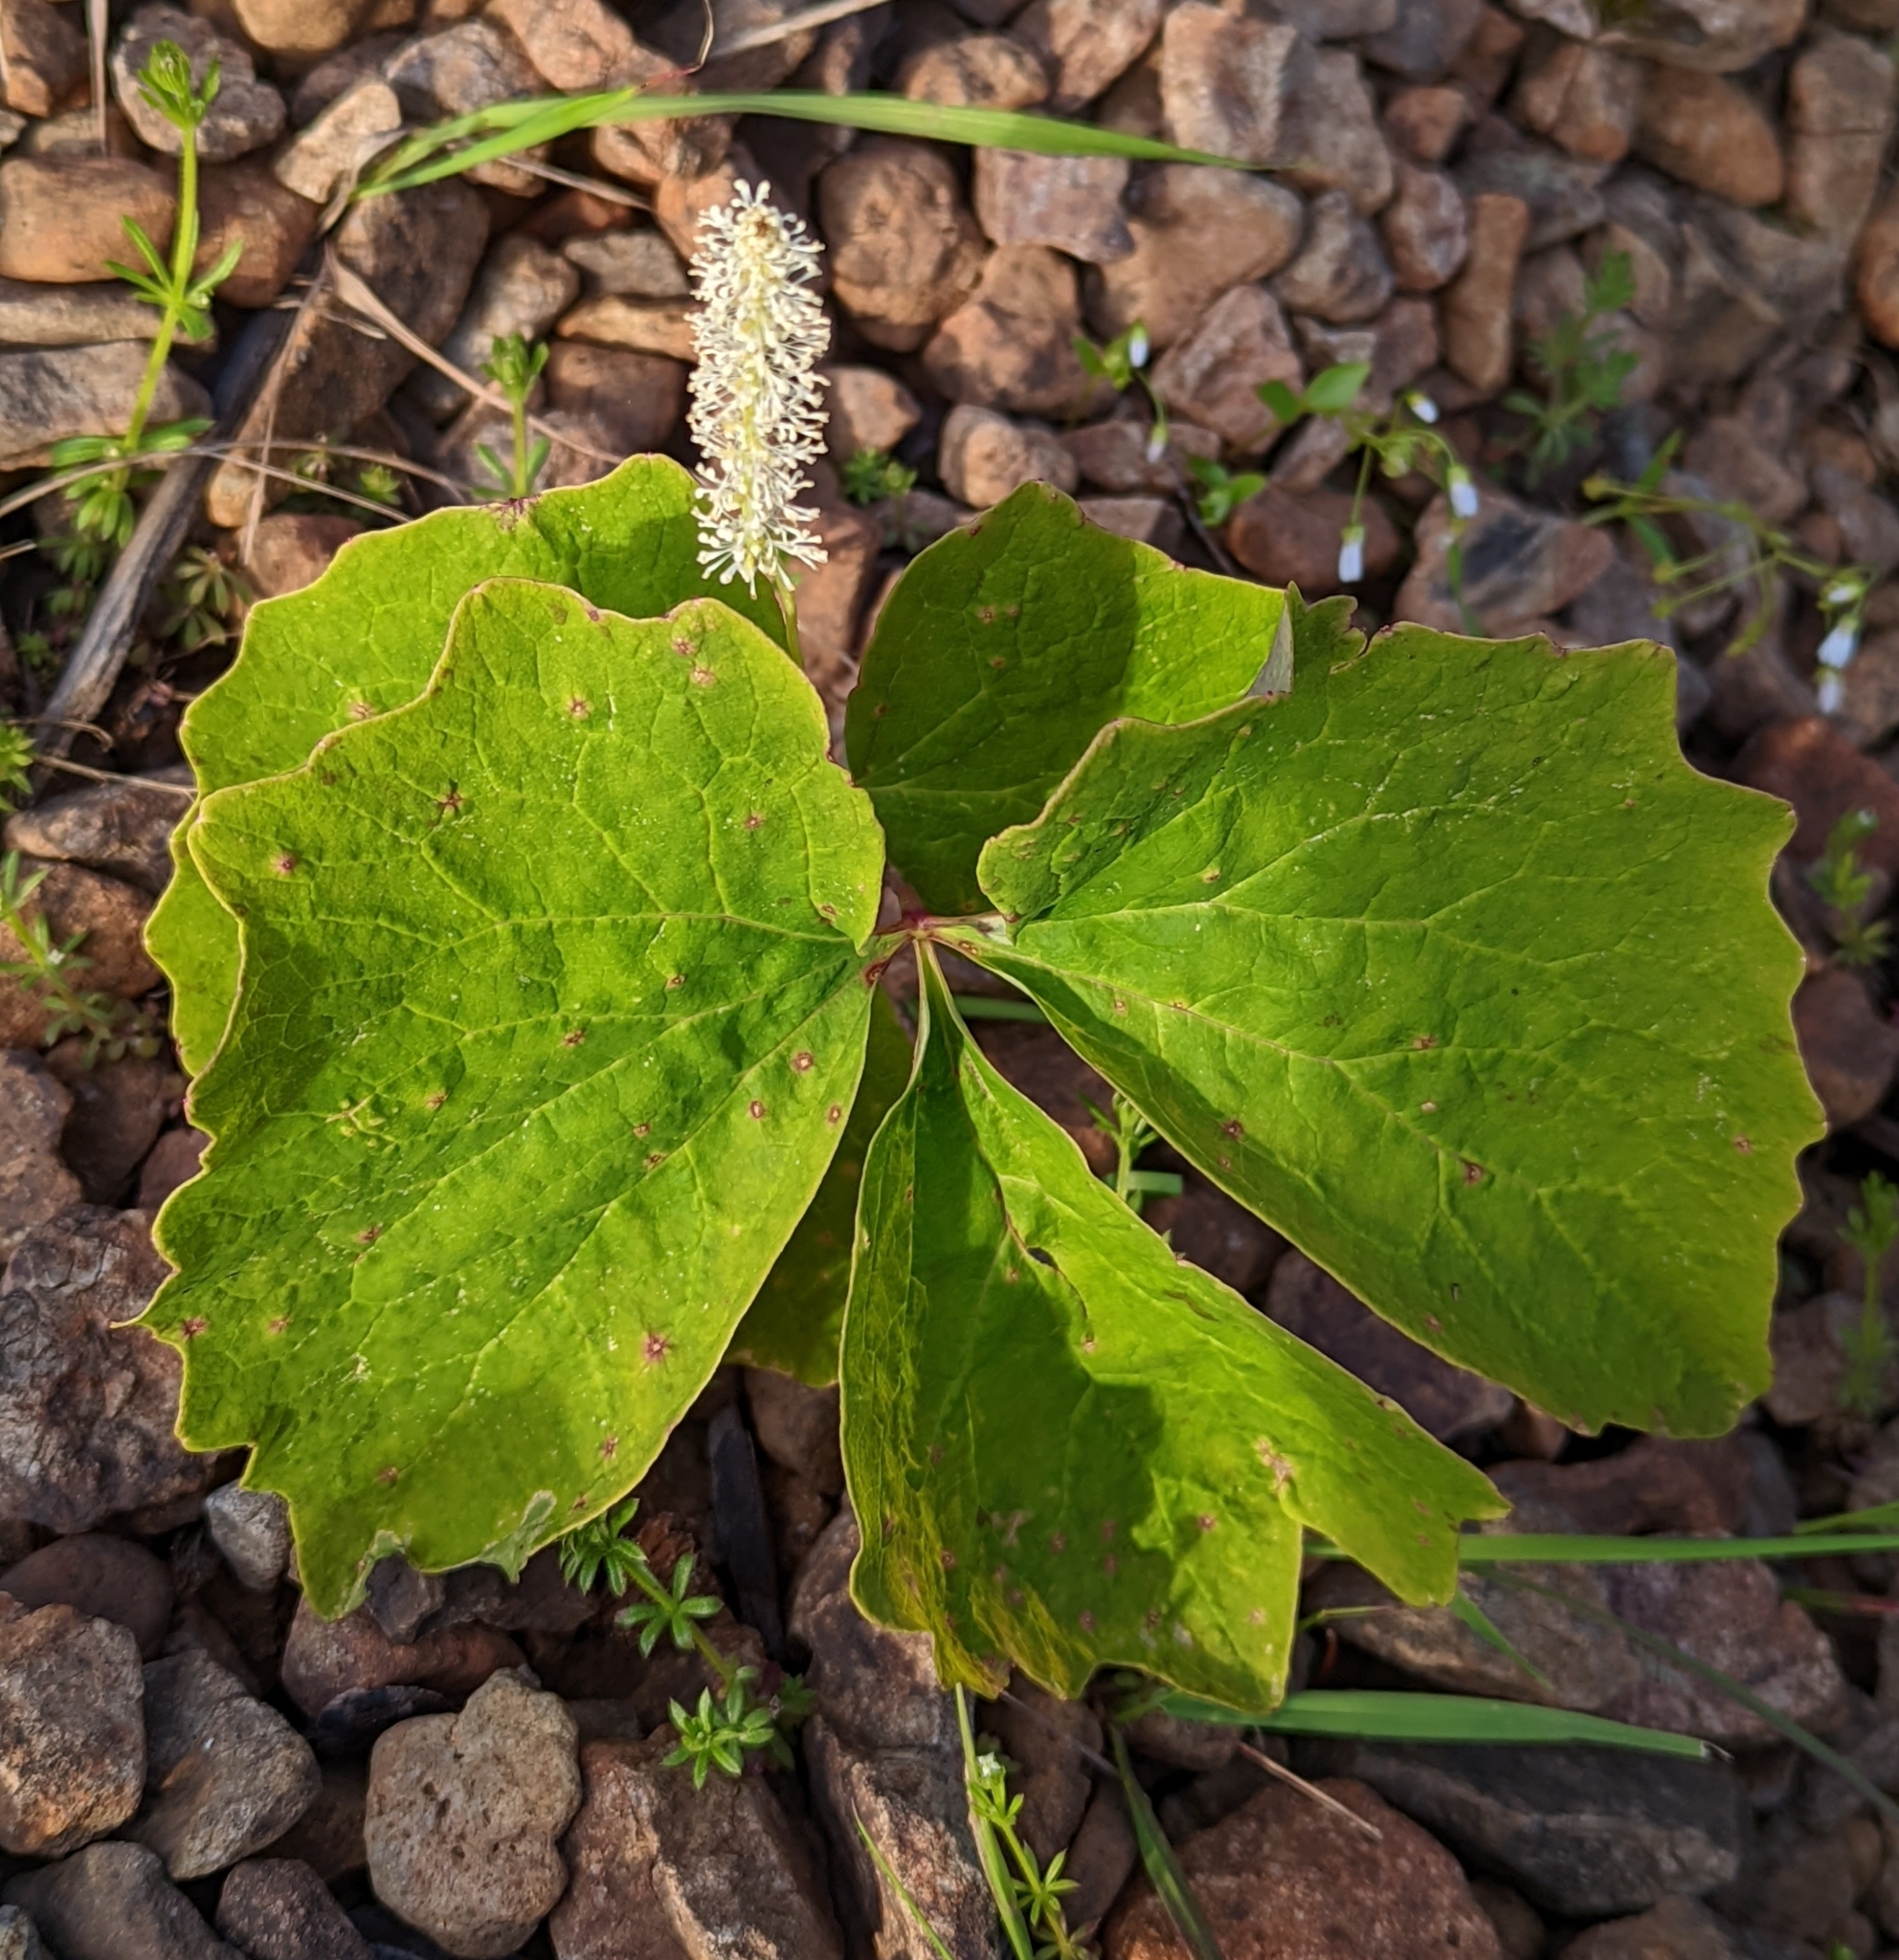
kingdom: Plantae
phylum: Tracheophyta
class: Magnoliopsida
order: Ranunculales
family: Berberidaceae
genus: Achlys
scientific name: Achlys triphylla
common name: Vanilla-leaf
